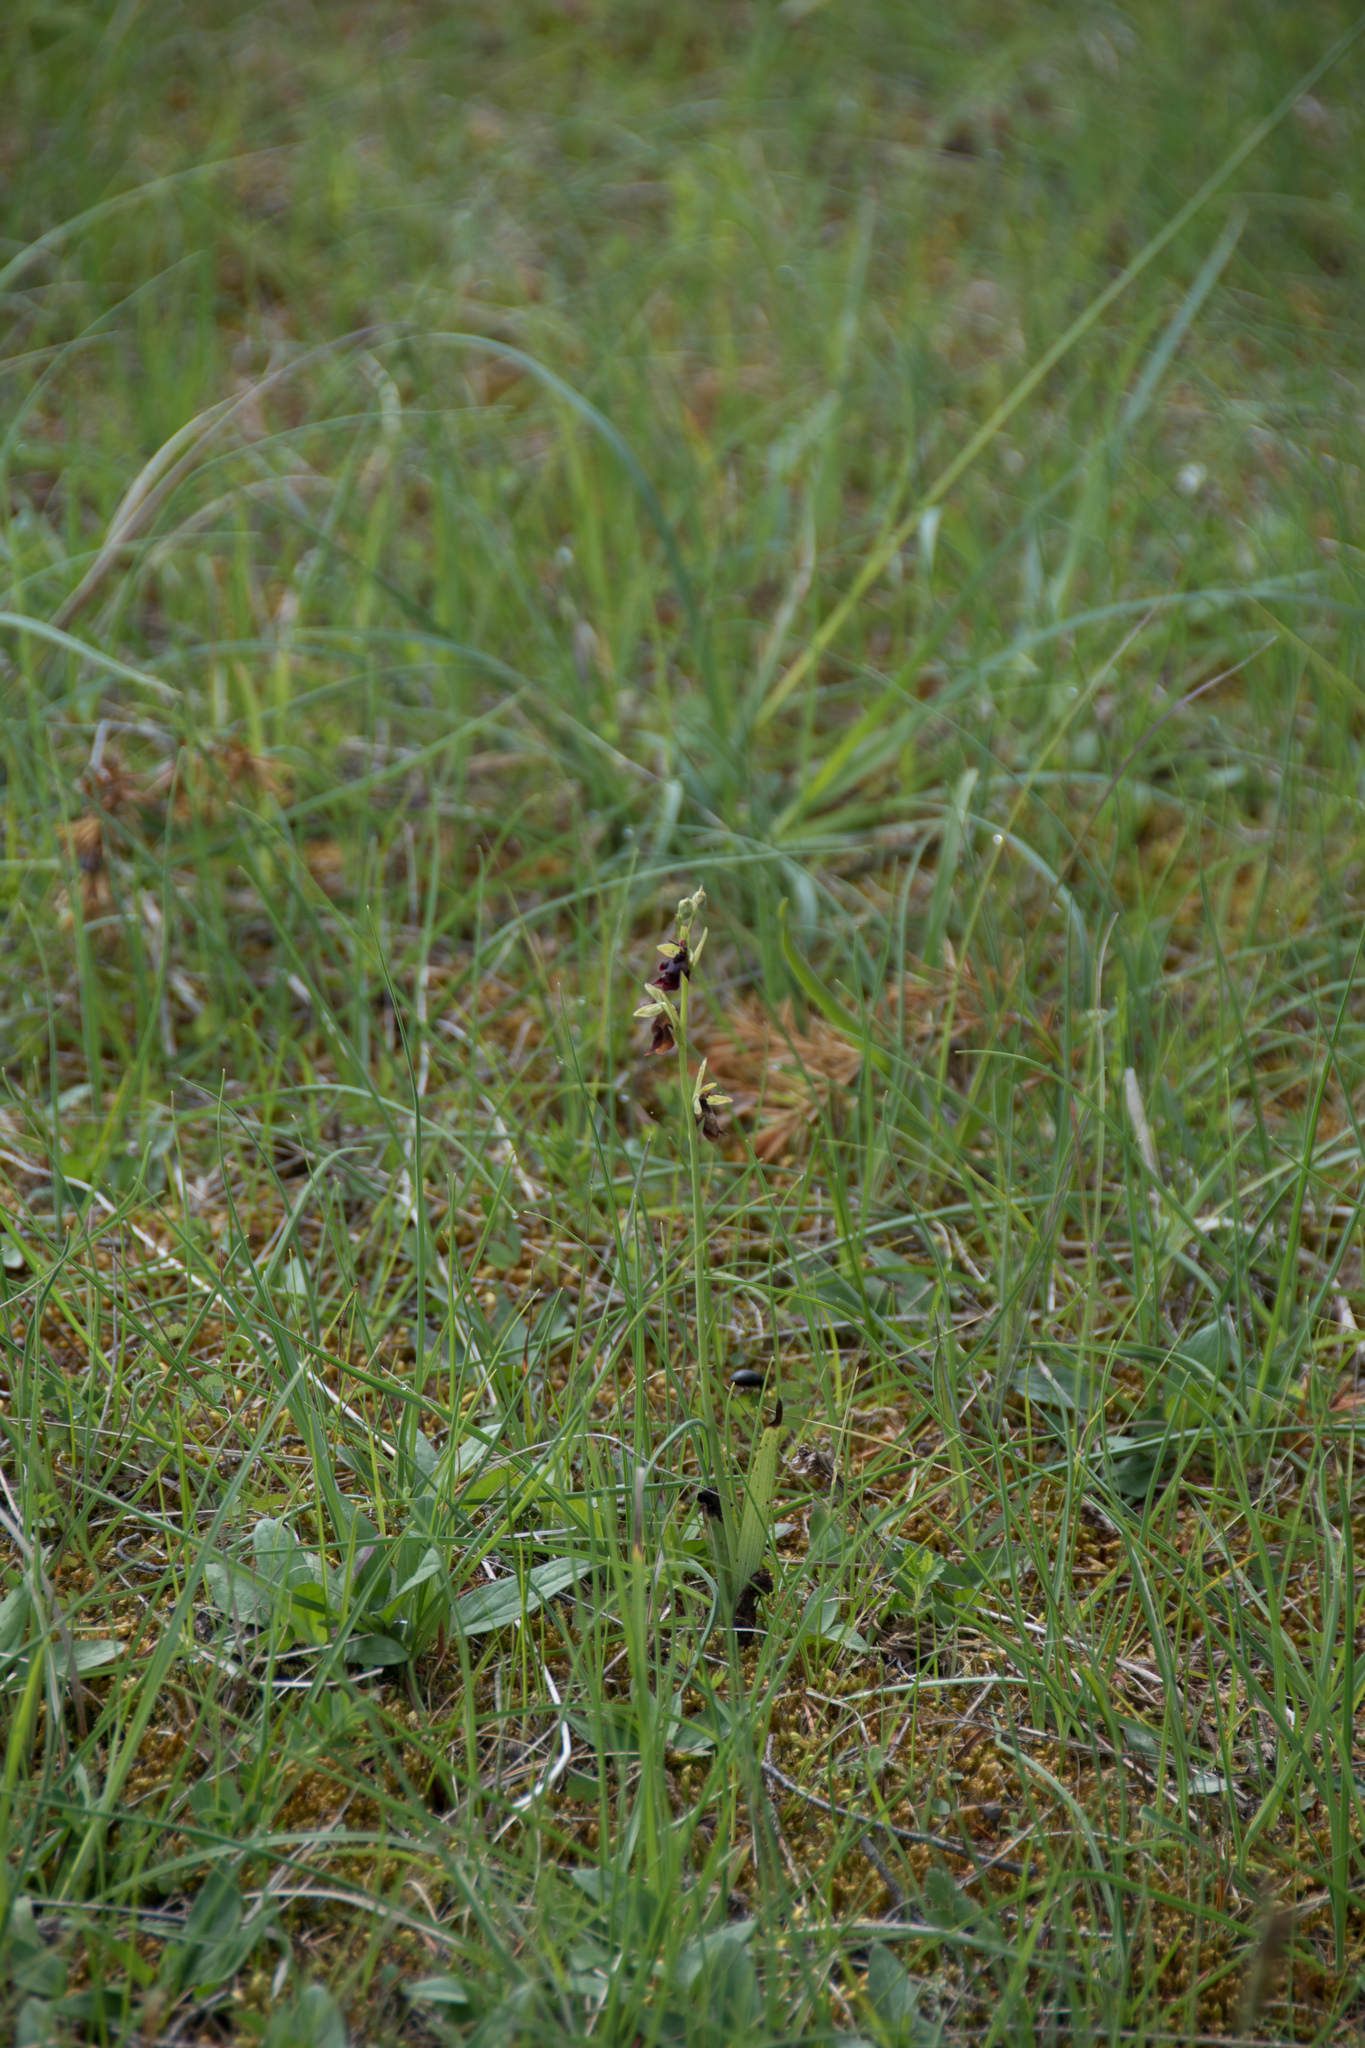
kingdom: Plantae
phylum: Tracheophyta
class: Liliopsida
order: Asparagales
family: Orchidaceae
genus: Ophrys
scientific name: Ophrys insectifera
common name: Fly orchid
